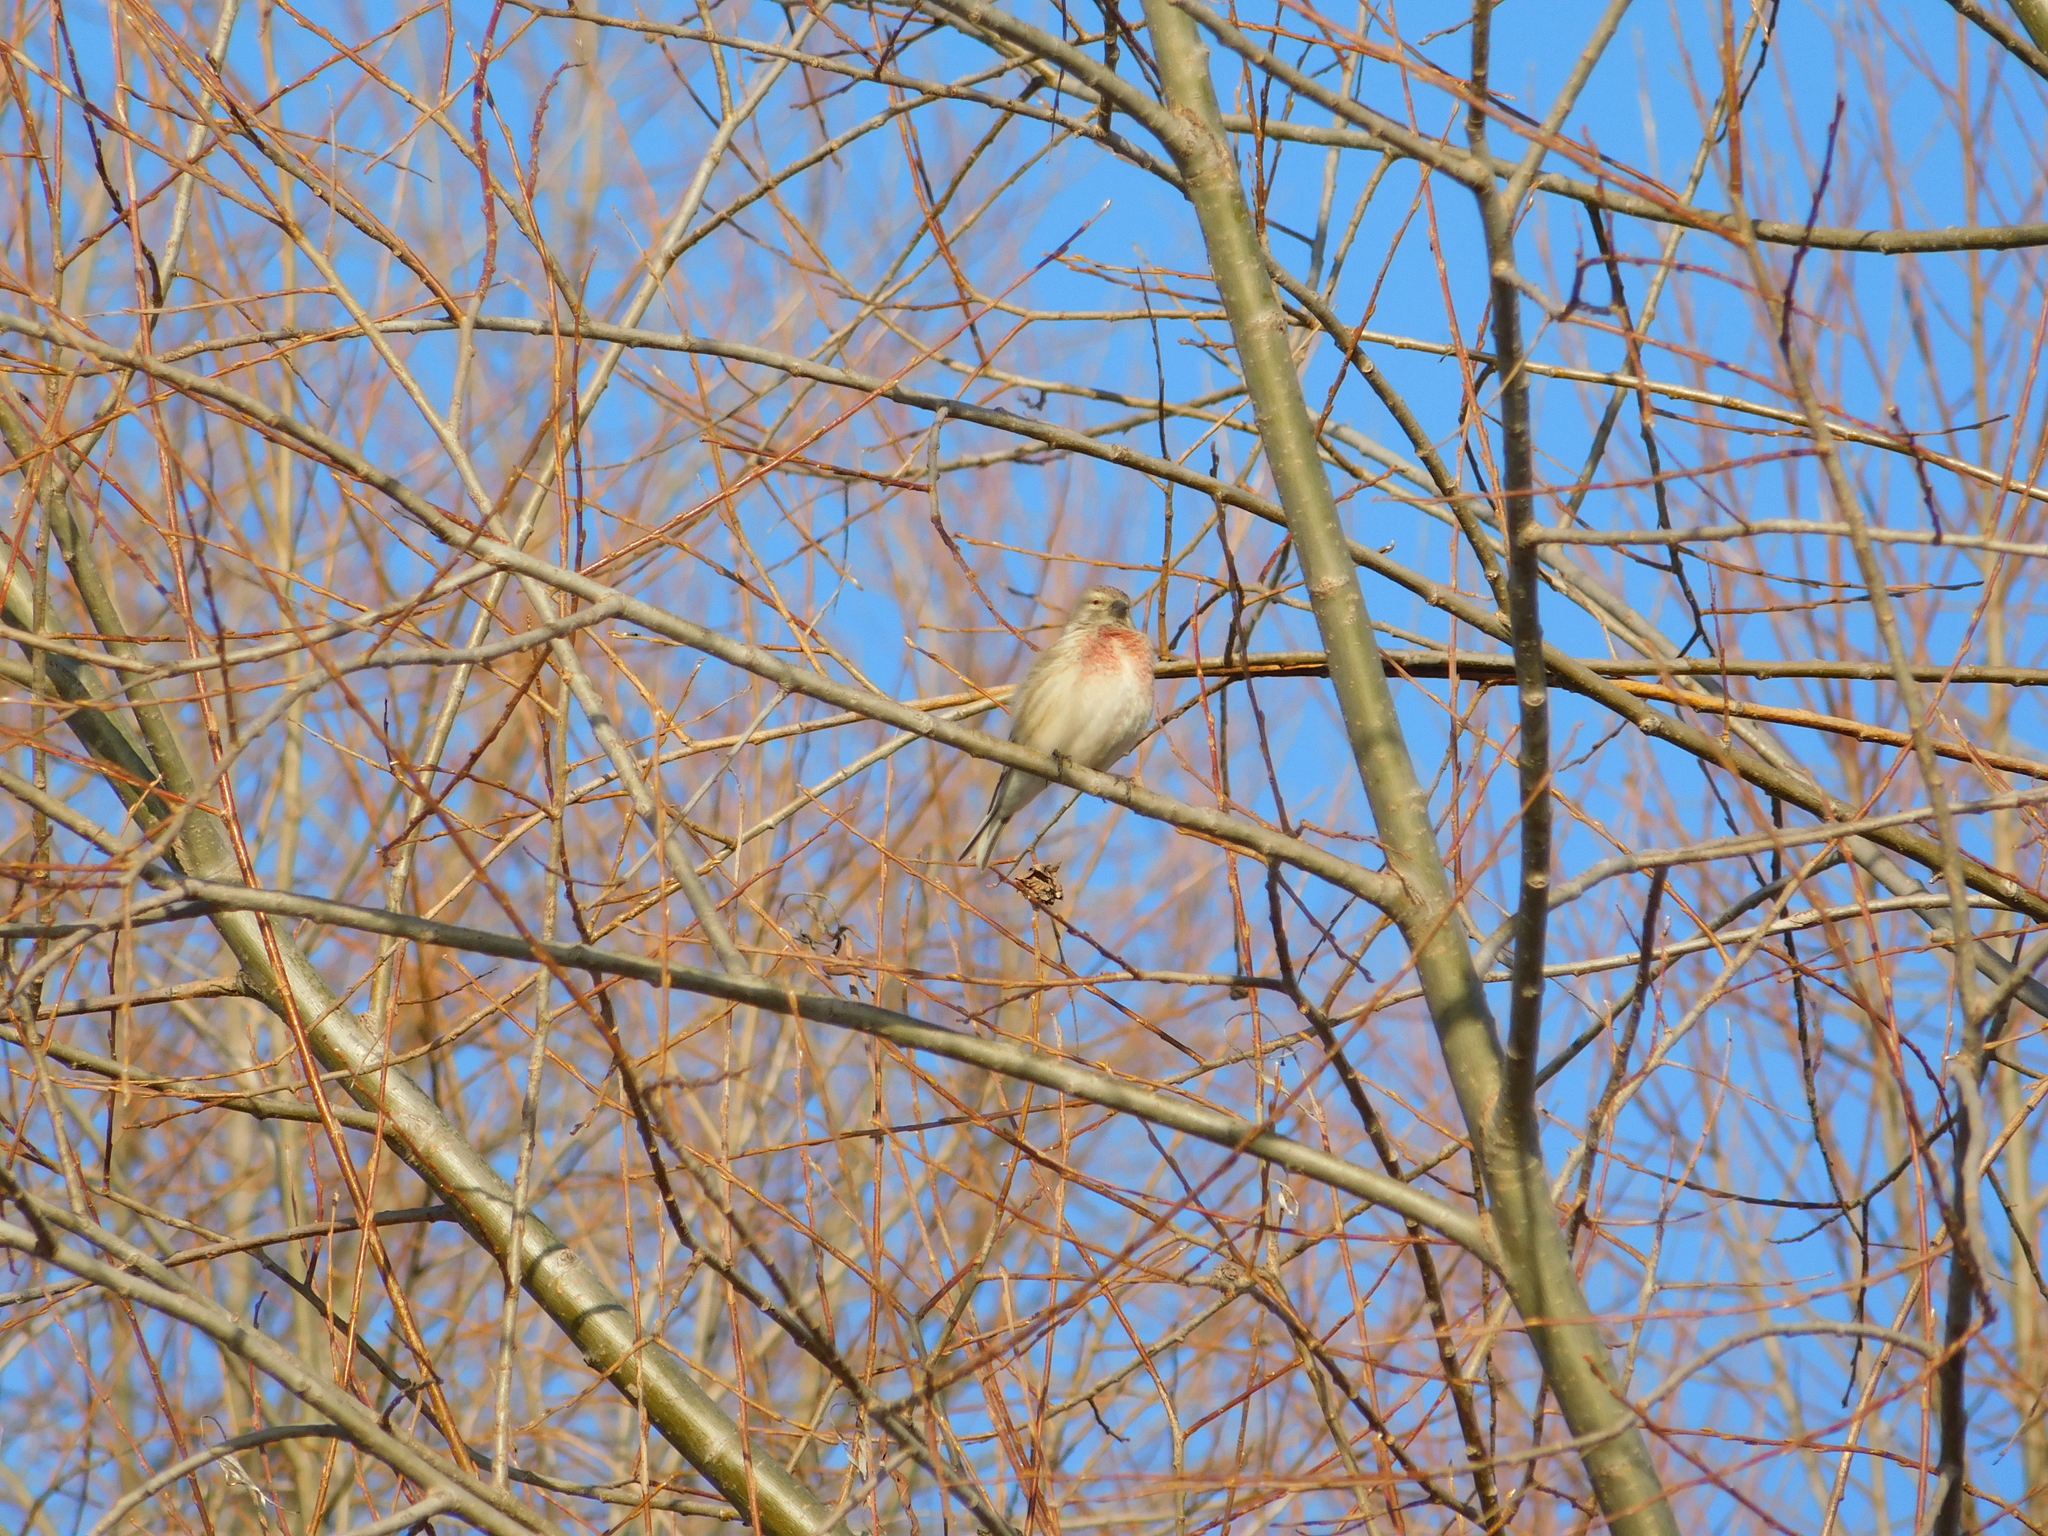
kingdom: Animalia
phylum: Chordata
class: Aves
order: Passeriformes
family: Fringillidae
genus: Linaria
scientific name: Linaria cannabina
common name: Common linnet
